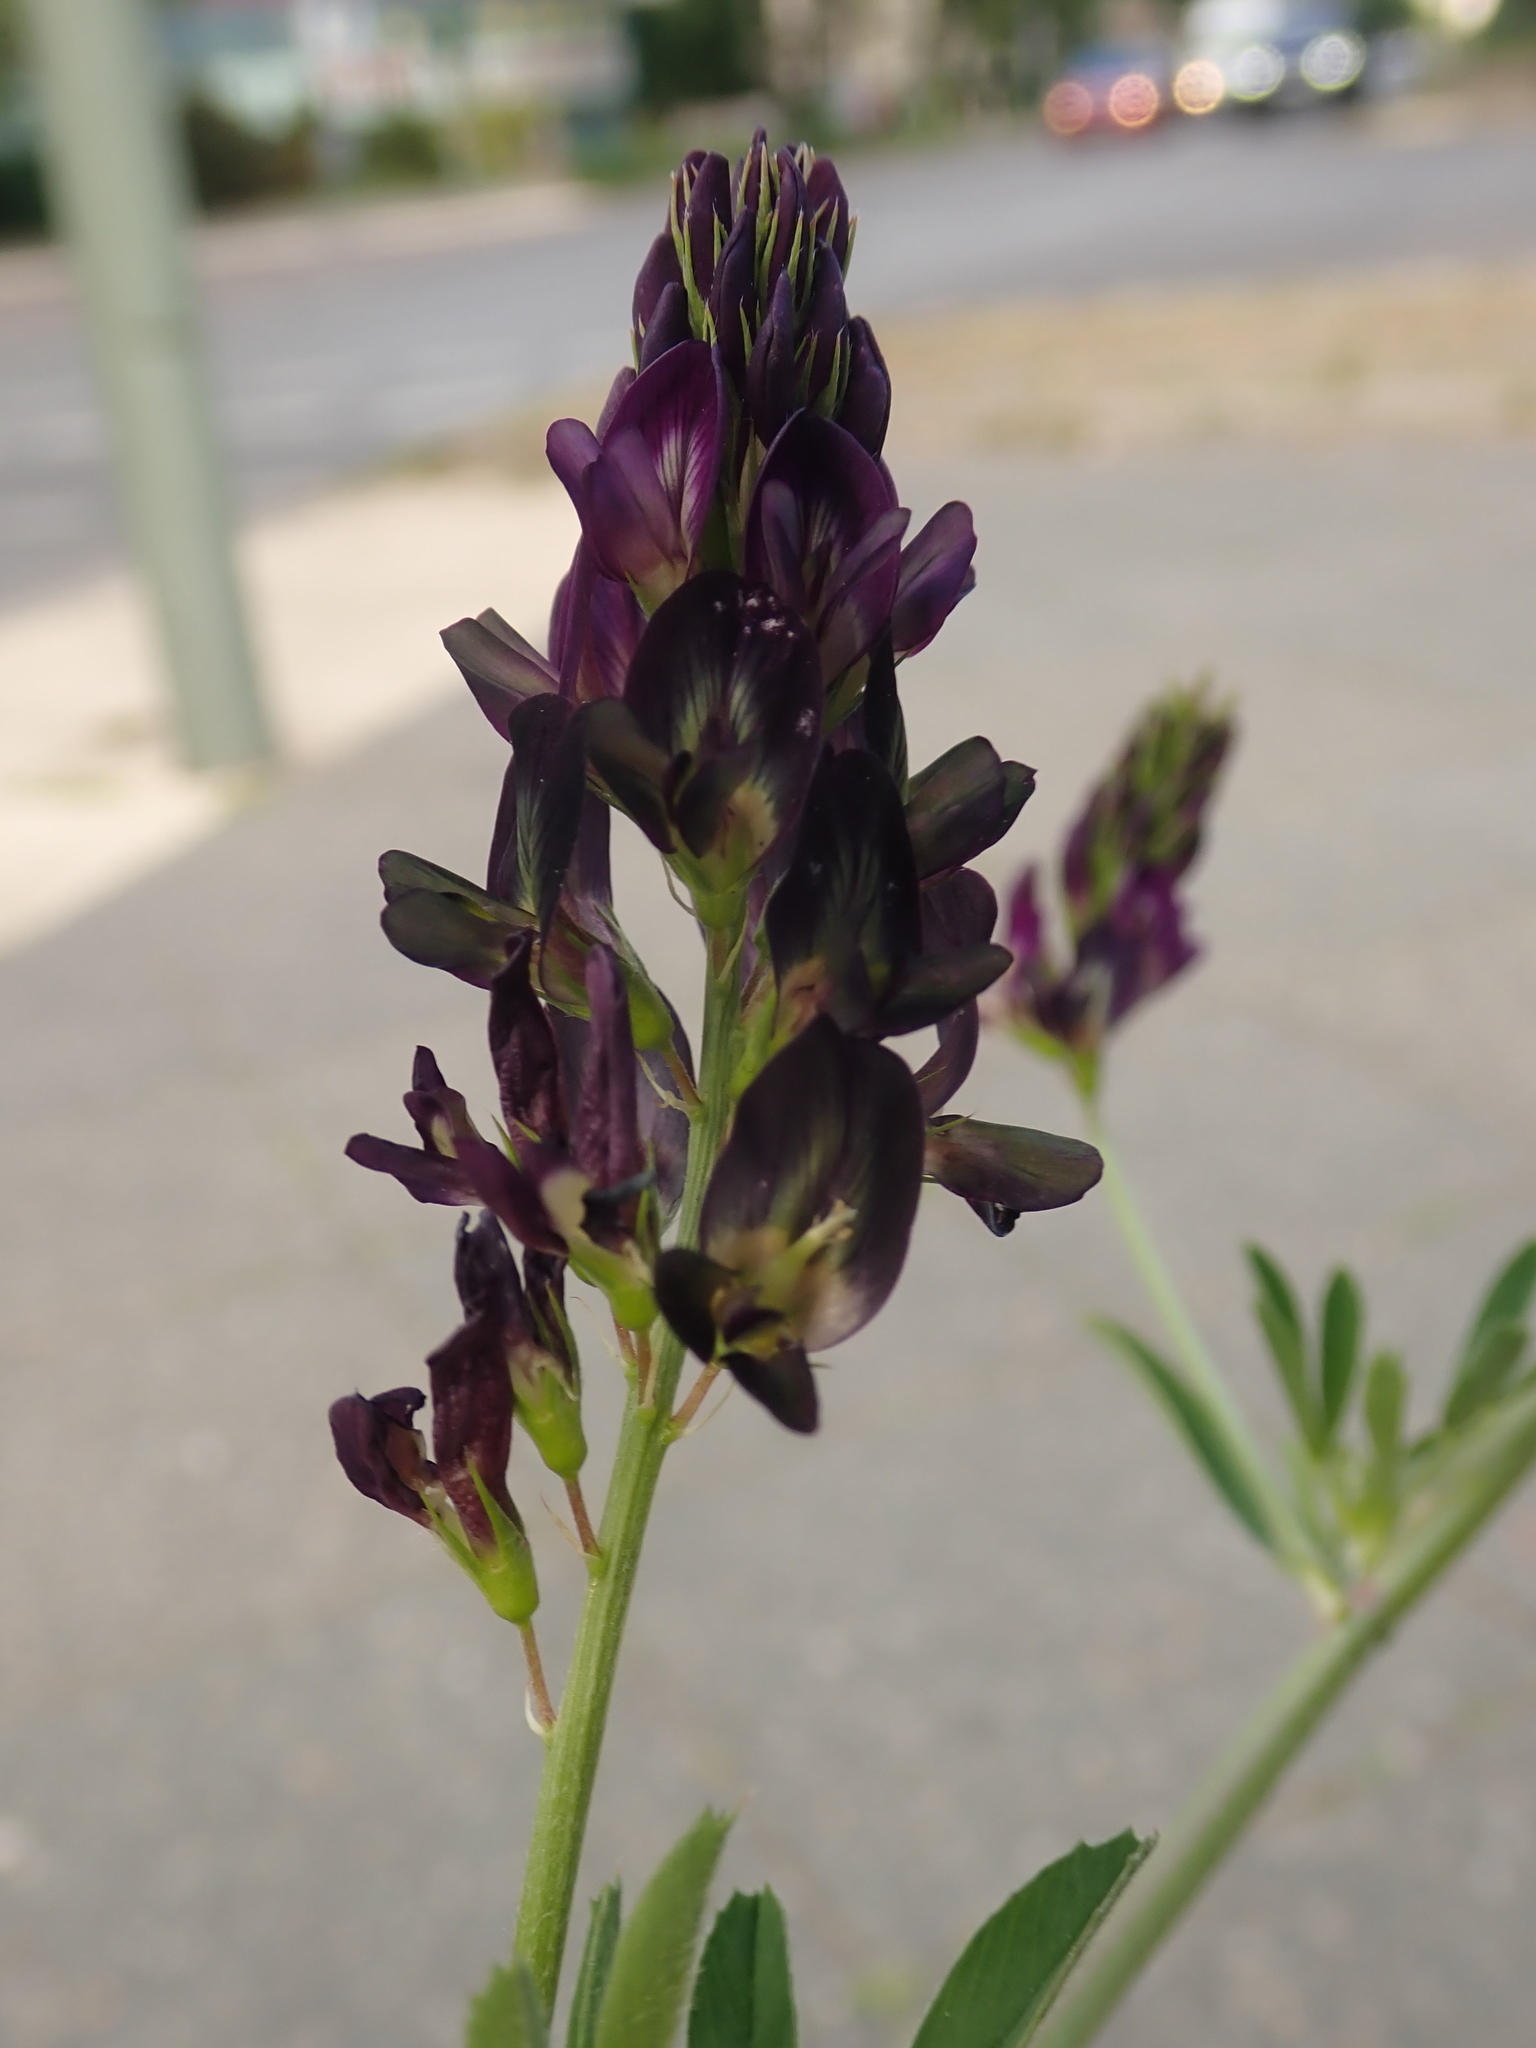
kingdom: Plantae
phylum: Tracheophyta
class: Magnoliopsida
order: Fabales
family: Fabaceae
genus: Medicago
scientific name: Medicago varia
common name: Sand lucerne
